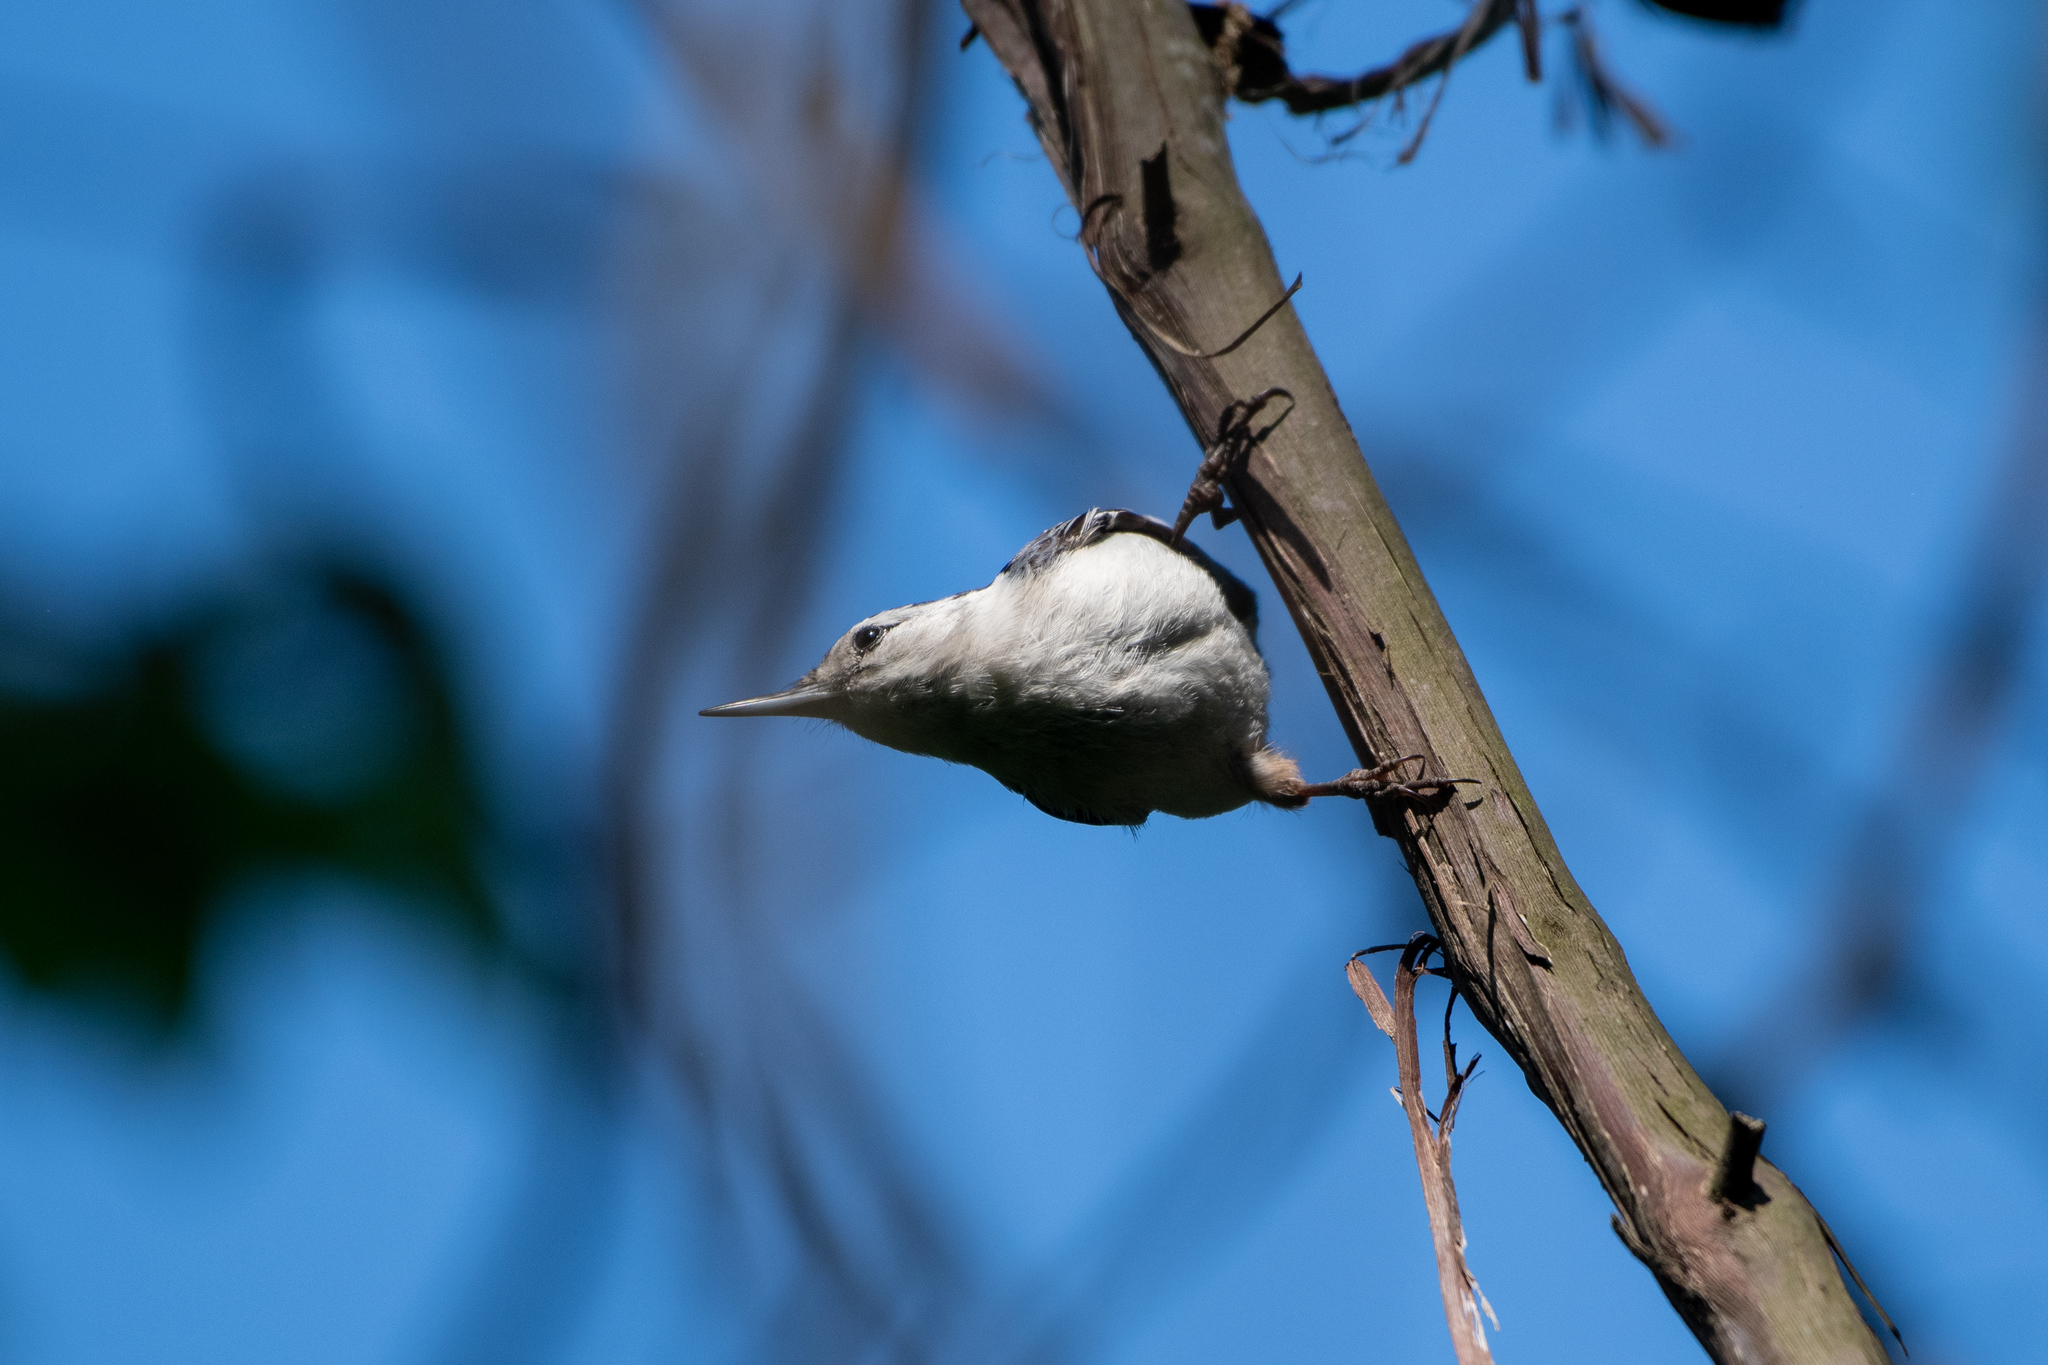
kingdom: Animalia
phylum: Chordata
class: Aves
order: Passeriformes
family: Sittidae
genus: Sitta
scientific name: Sitta carolinensis
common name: White-breasted nuthatch
